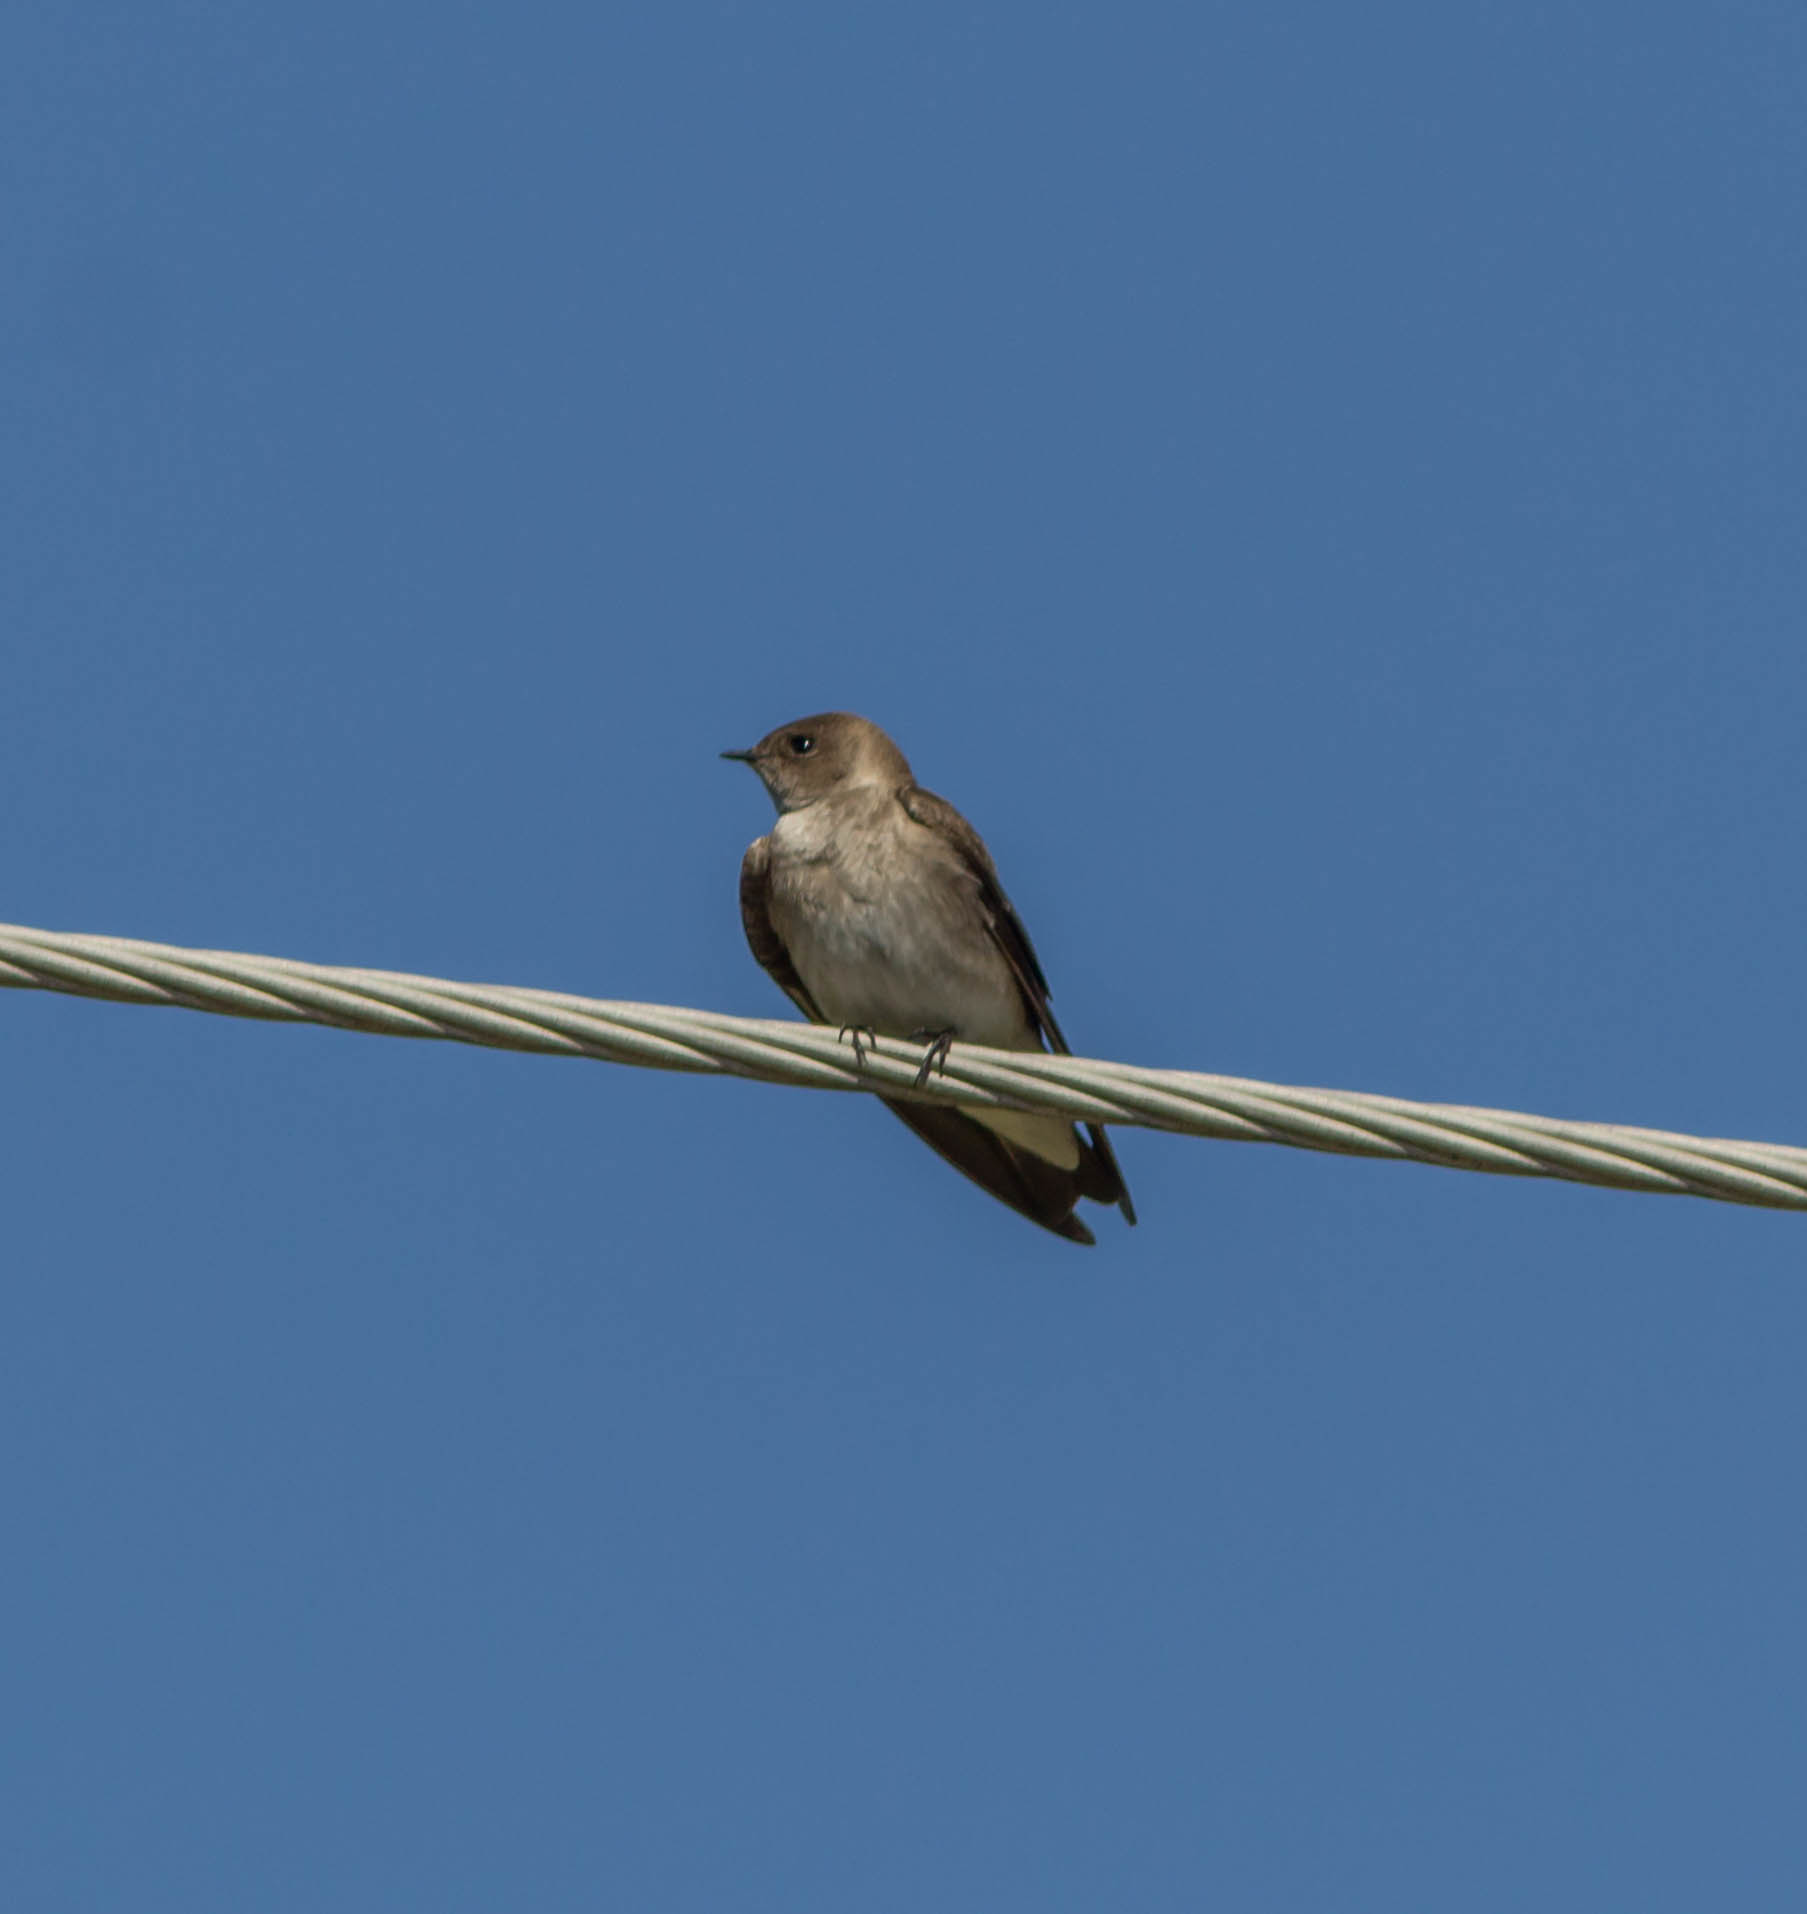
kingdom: Animalia
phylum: Chordata
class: Aves
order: Passeriformes
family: Hirundinidae
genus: Stelgidopteryx
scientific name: Stelgidopteryx serripennis
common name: Northern rough-winged swallow
